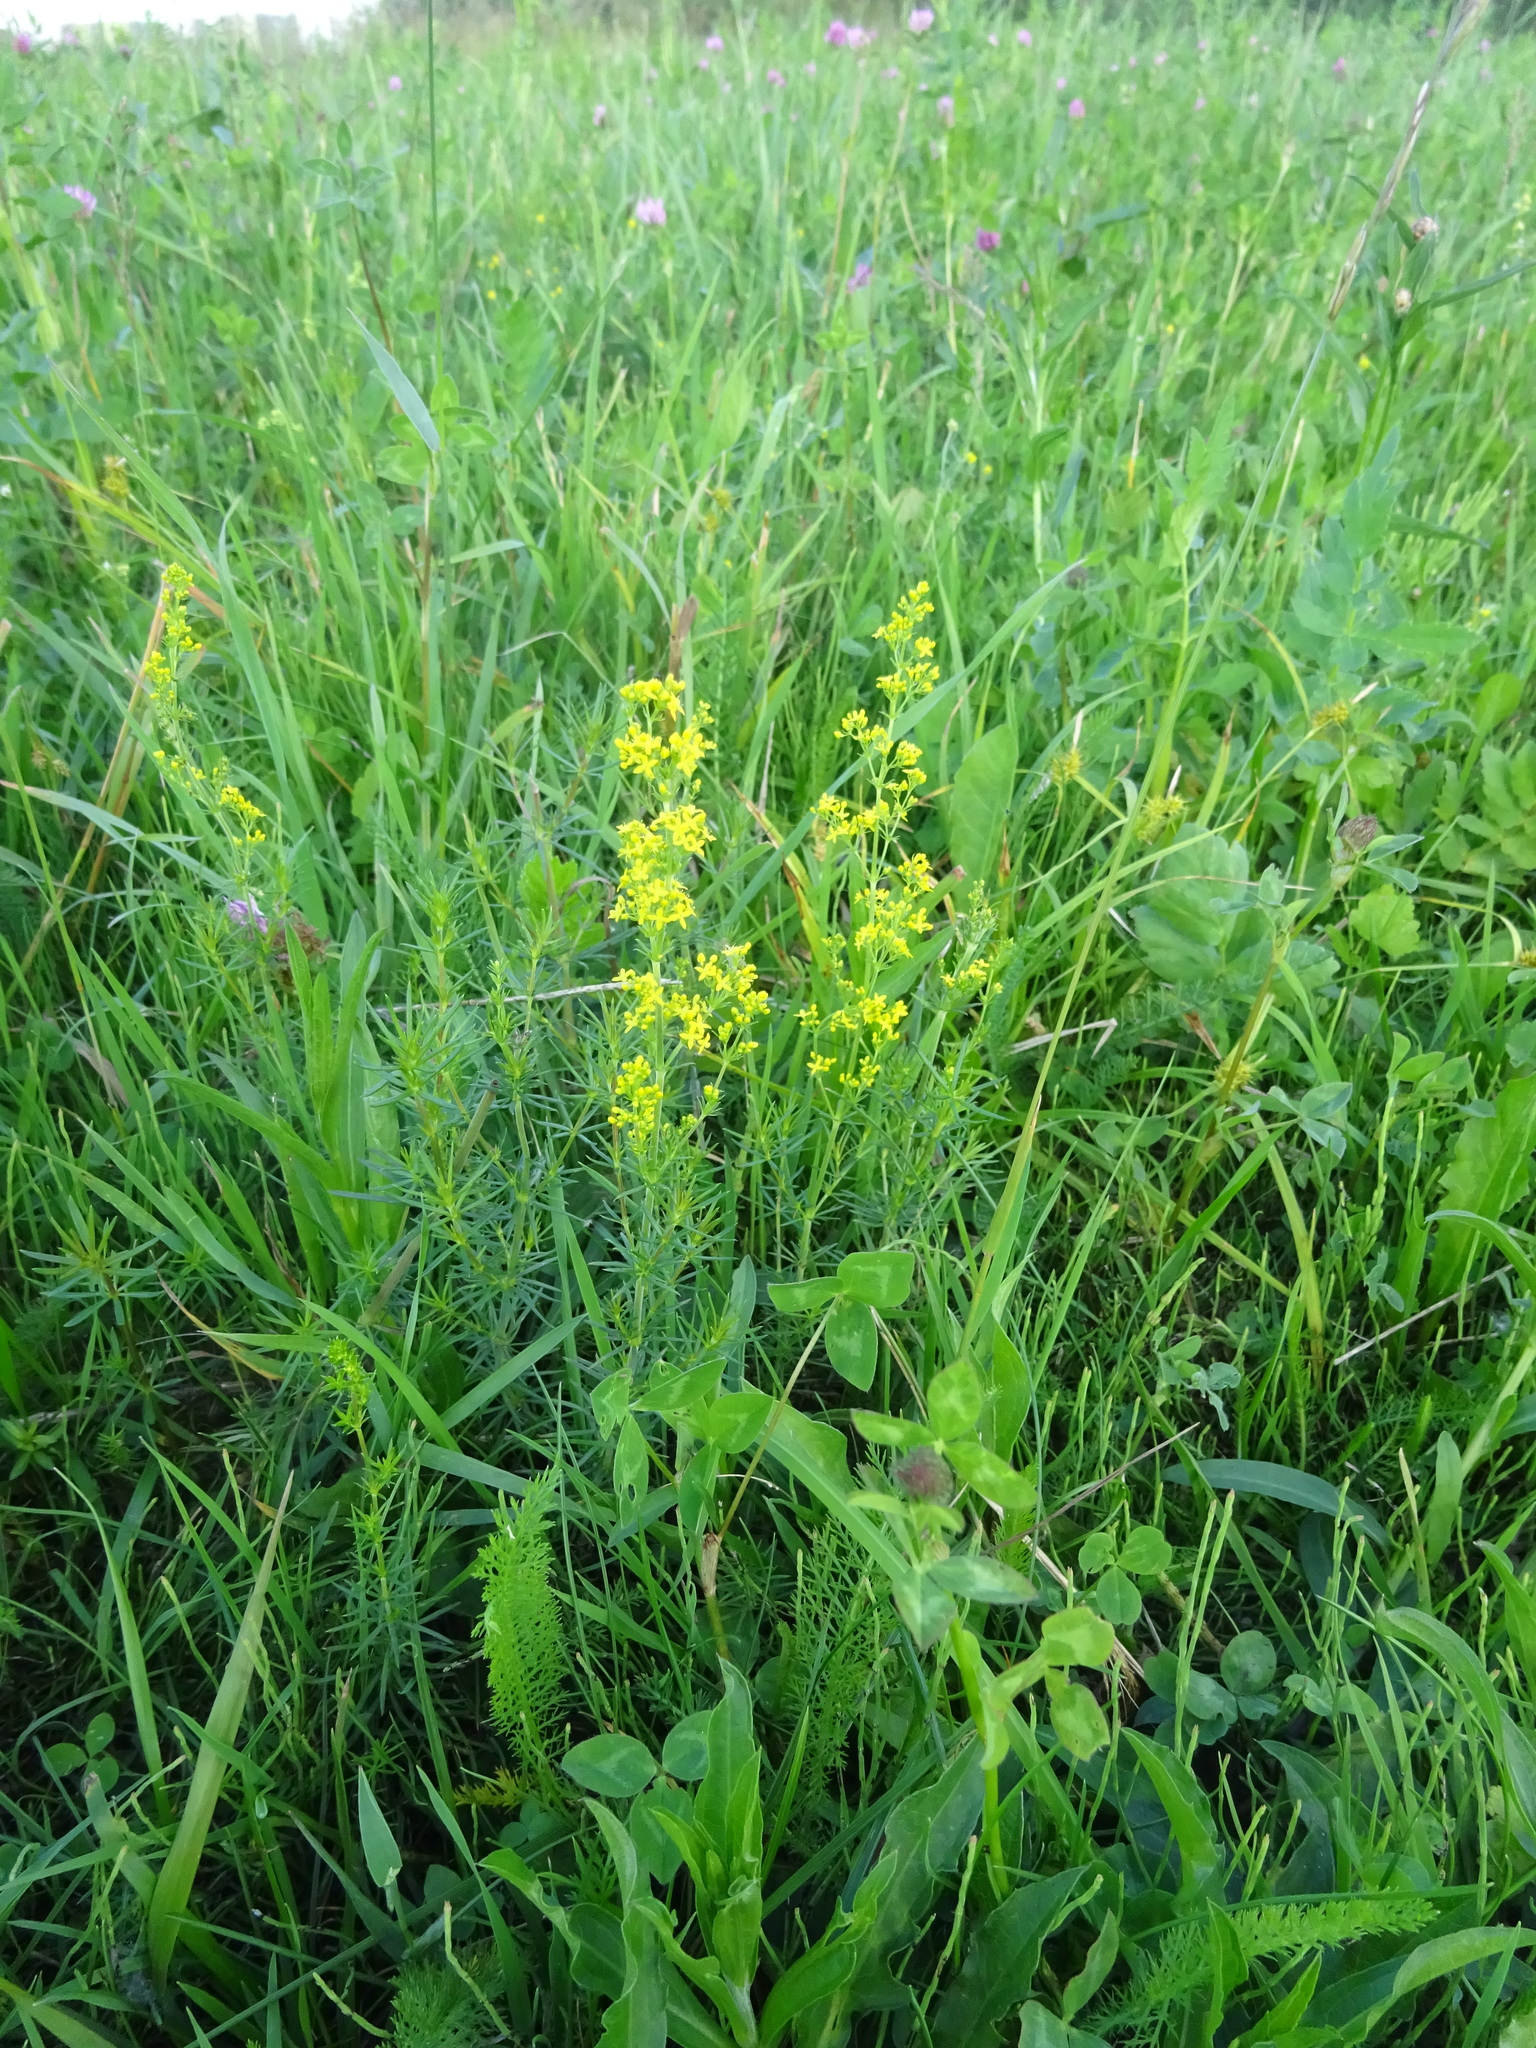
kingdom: Plantae
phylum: Tracheophyta
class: Magnoliopsida
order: Gentianales
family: Rubiaceae
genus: Galium
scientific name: Galium verum
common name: Lady's bedstraw
